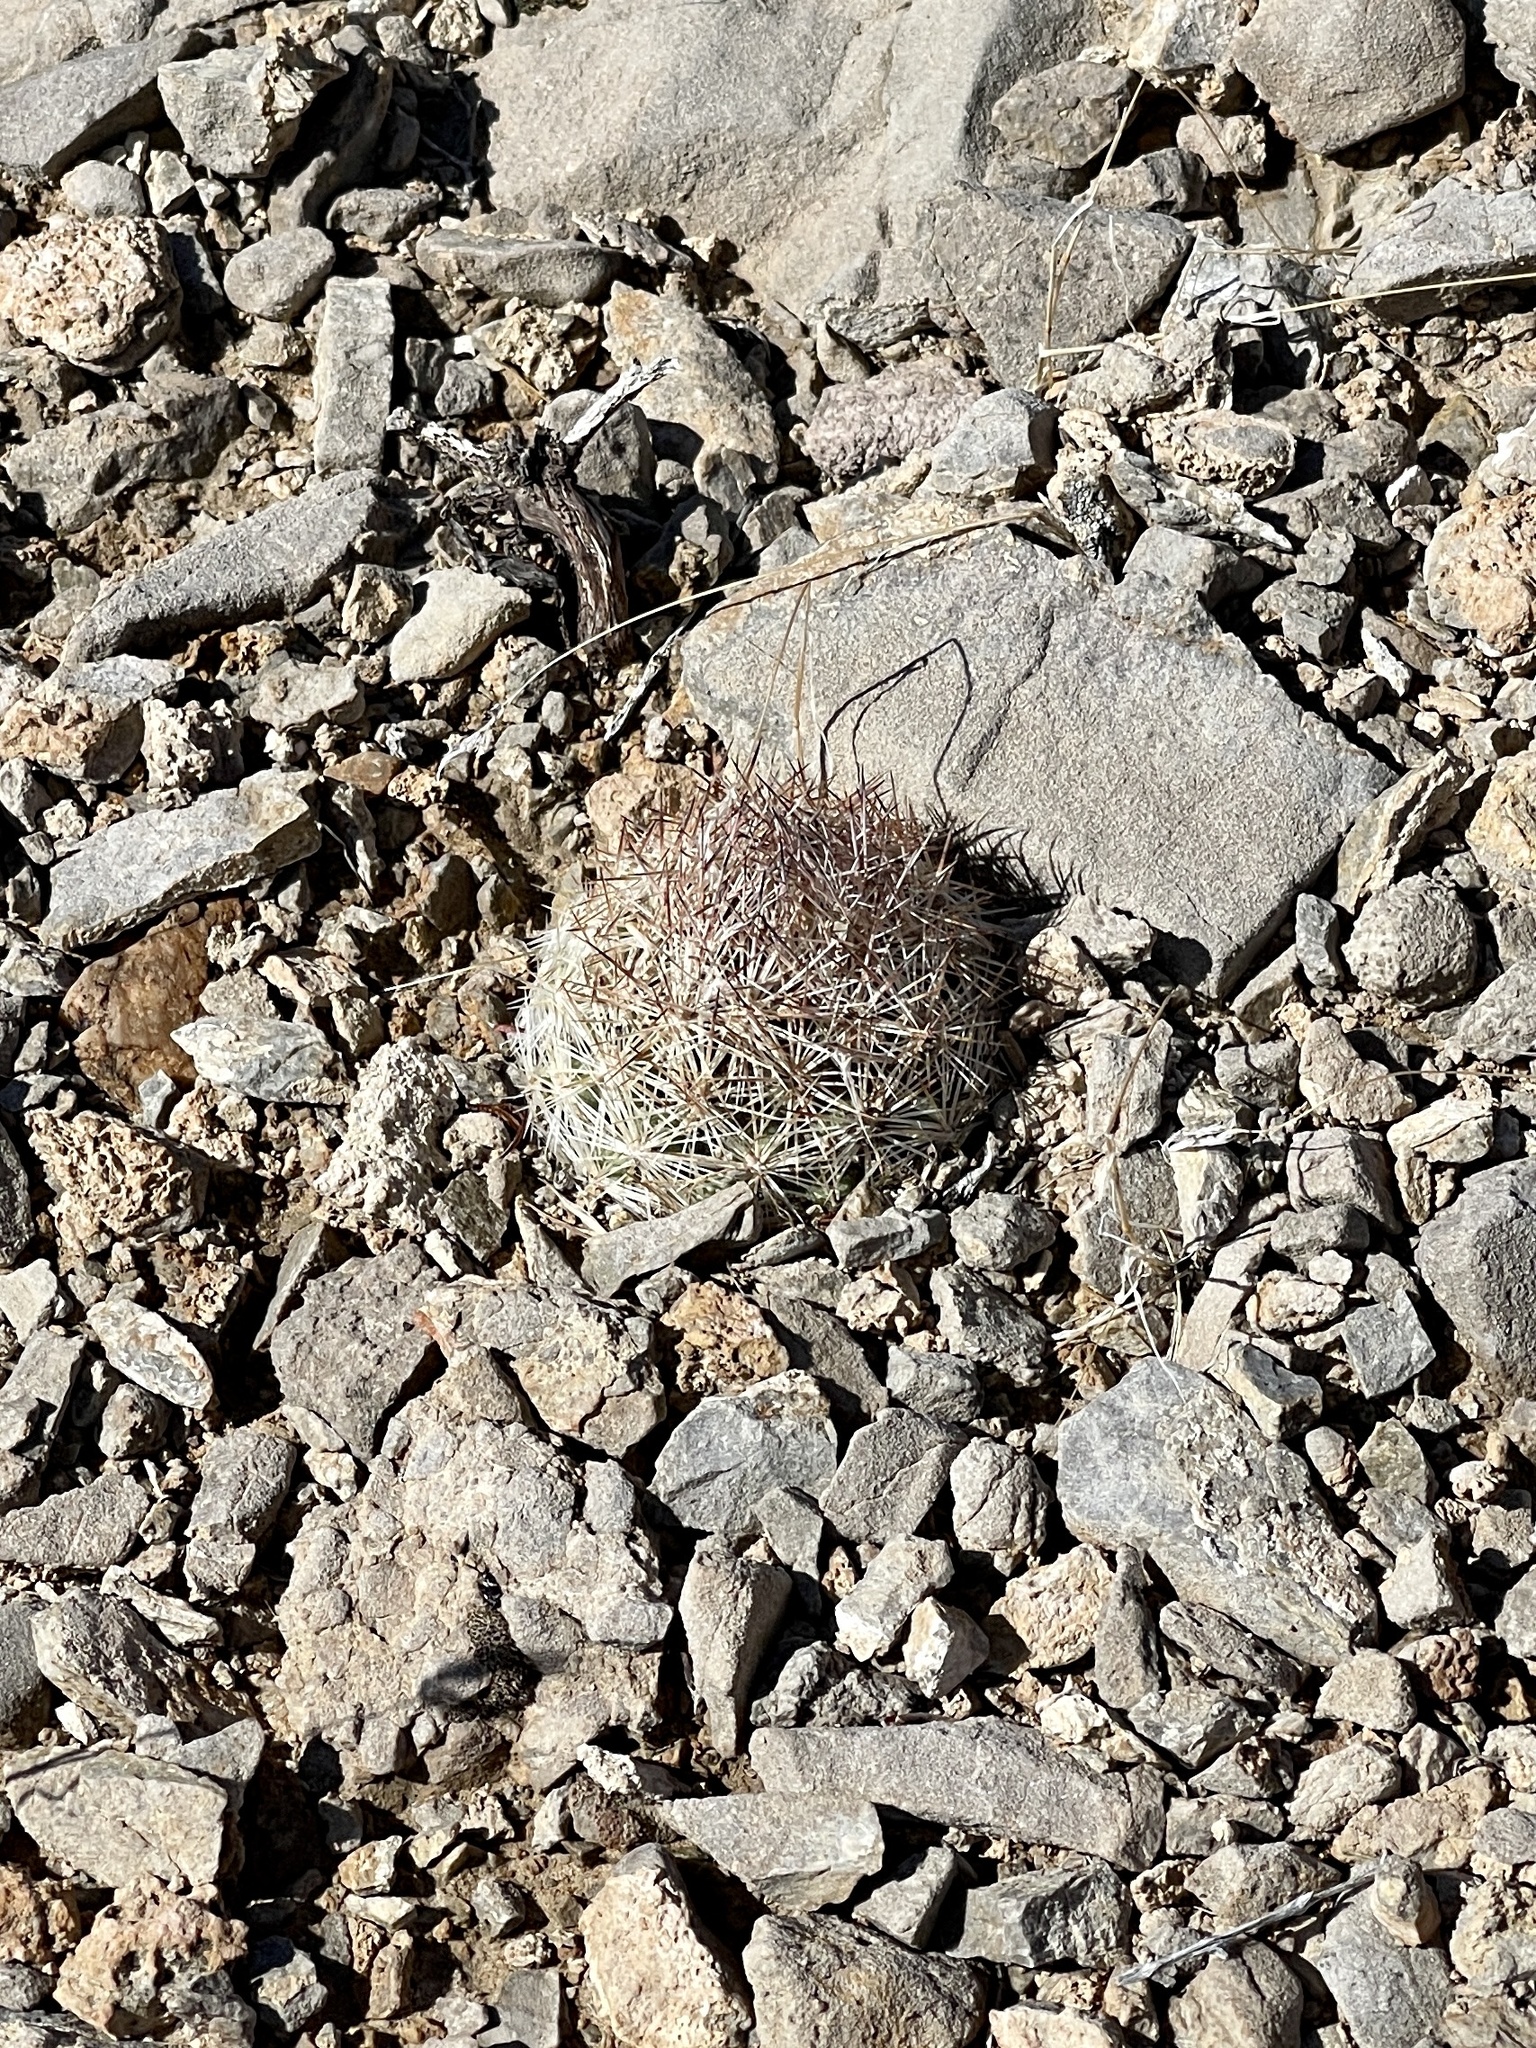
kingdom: Plantae
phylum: Tracheophyta
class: Magnoliopsida
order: Caryophyllales
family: Cactaceae
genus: Pelecyphora
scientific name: Pelecyphora dasyacantha
